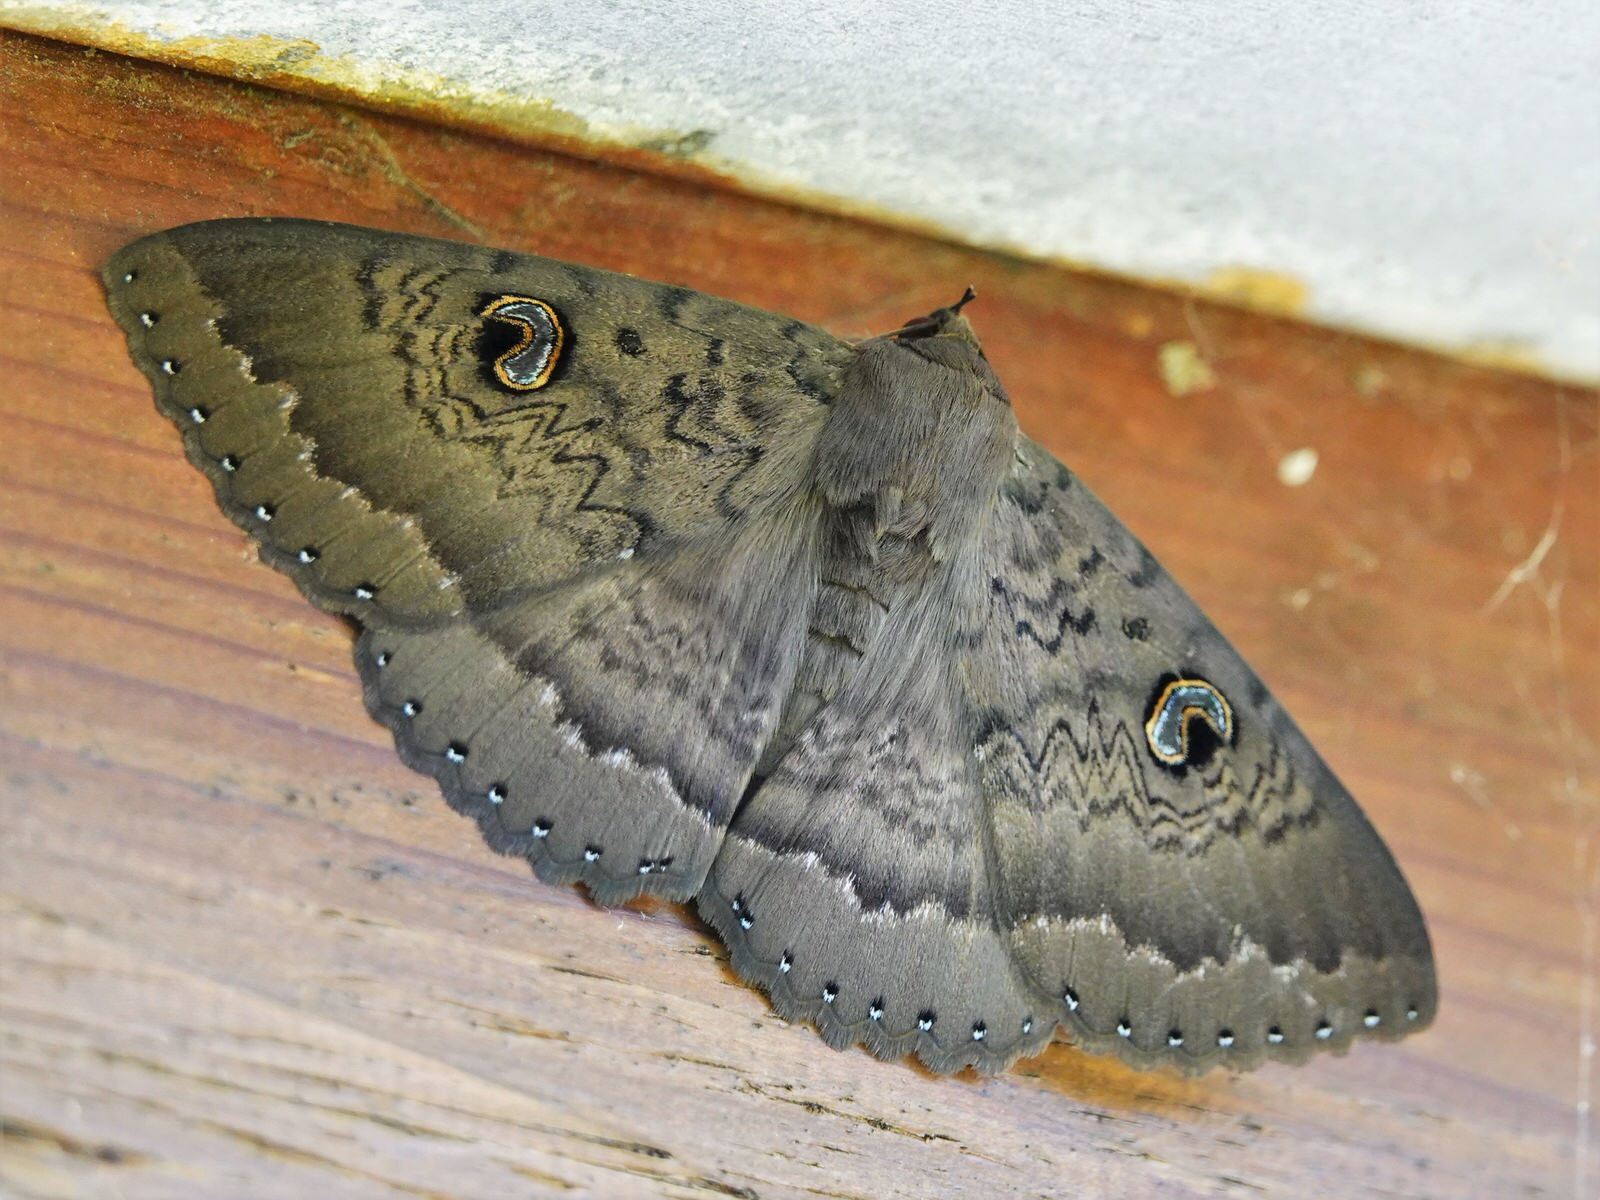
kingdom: Animalia
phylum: Arthropoda
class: Insecta
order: Lepidoptera
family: Erebidae
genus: Dasypodia
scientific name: Dasypodia cymatodes
